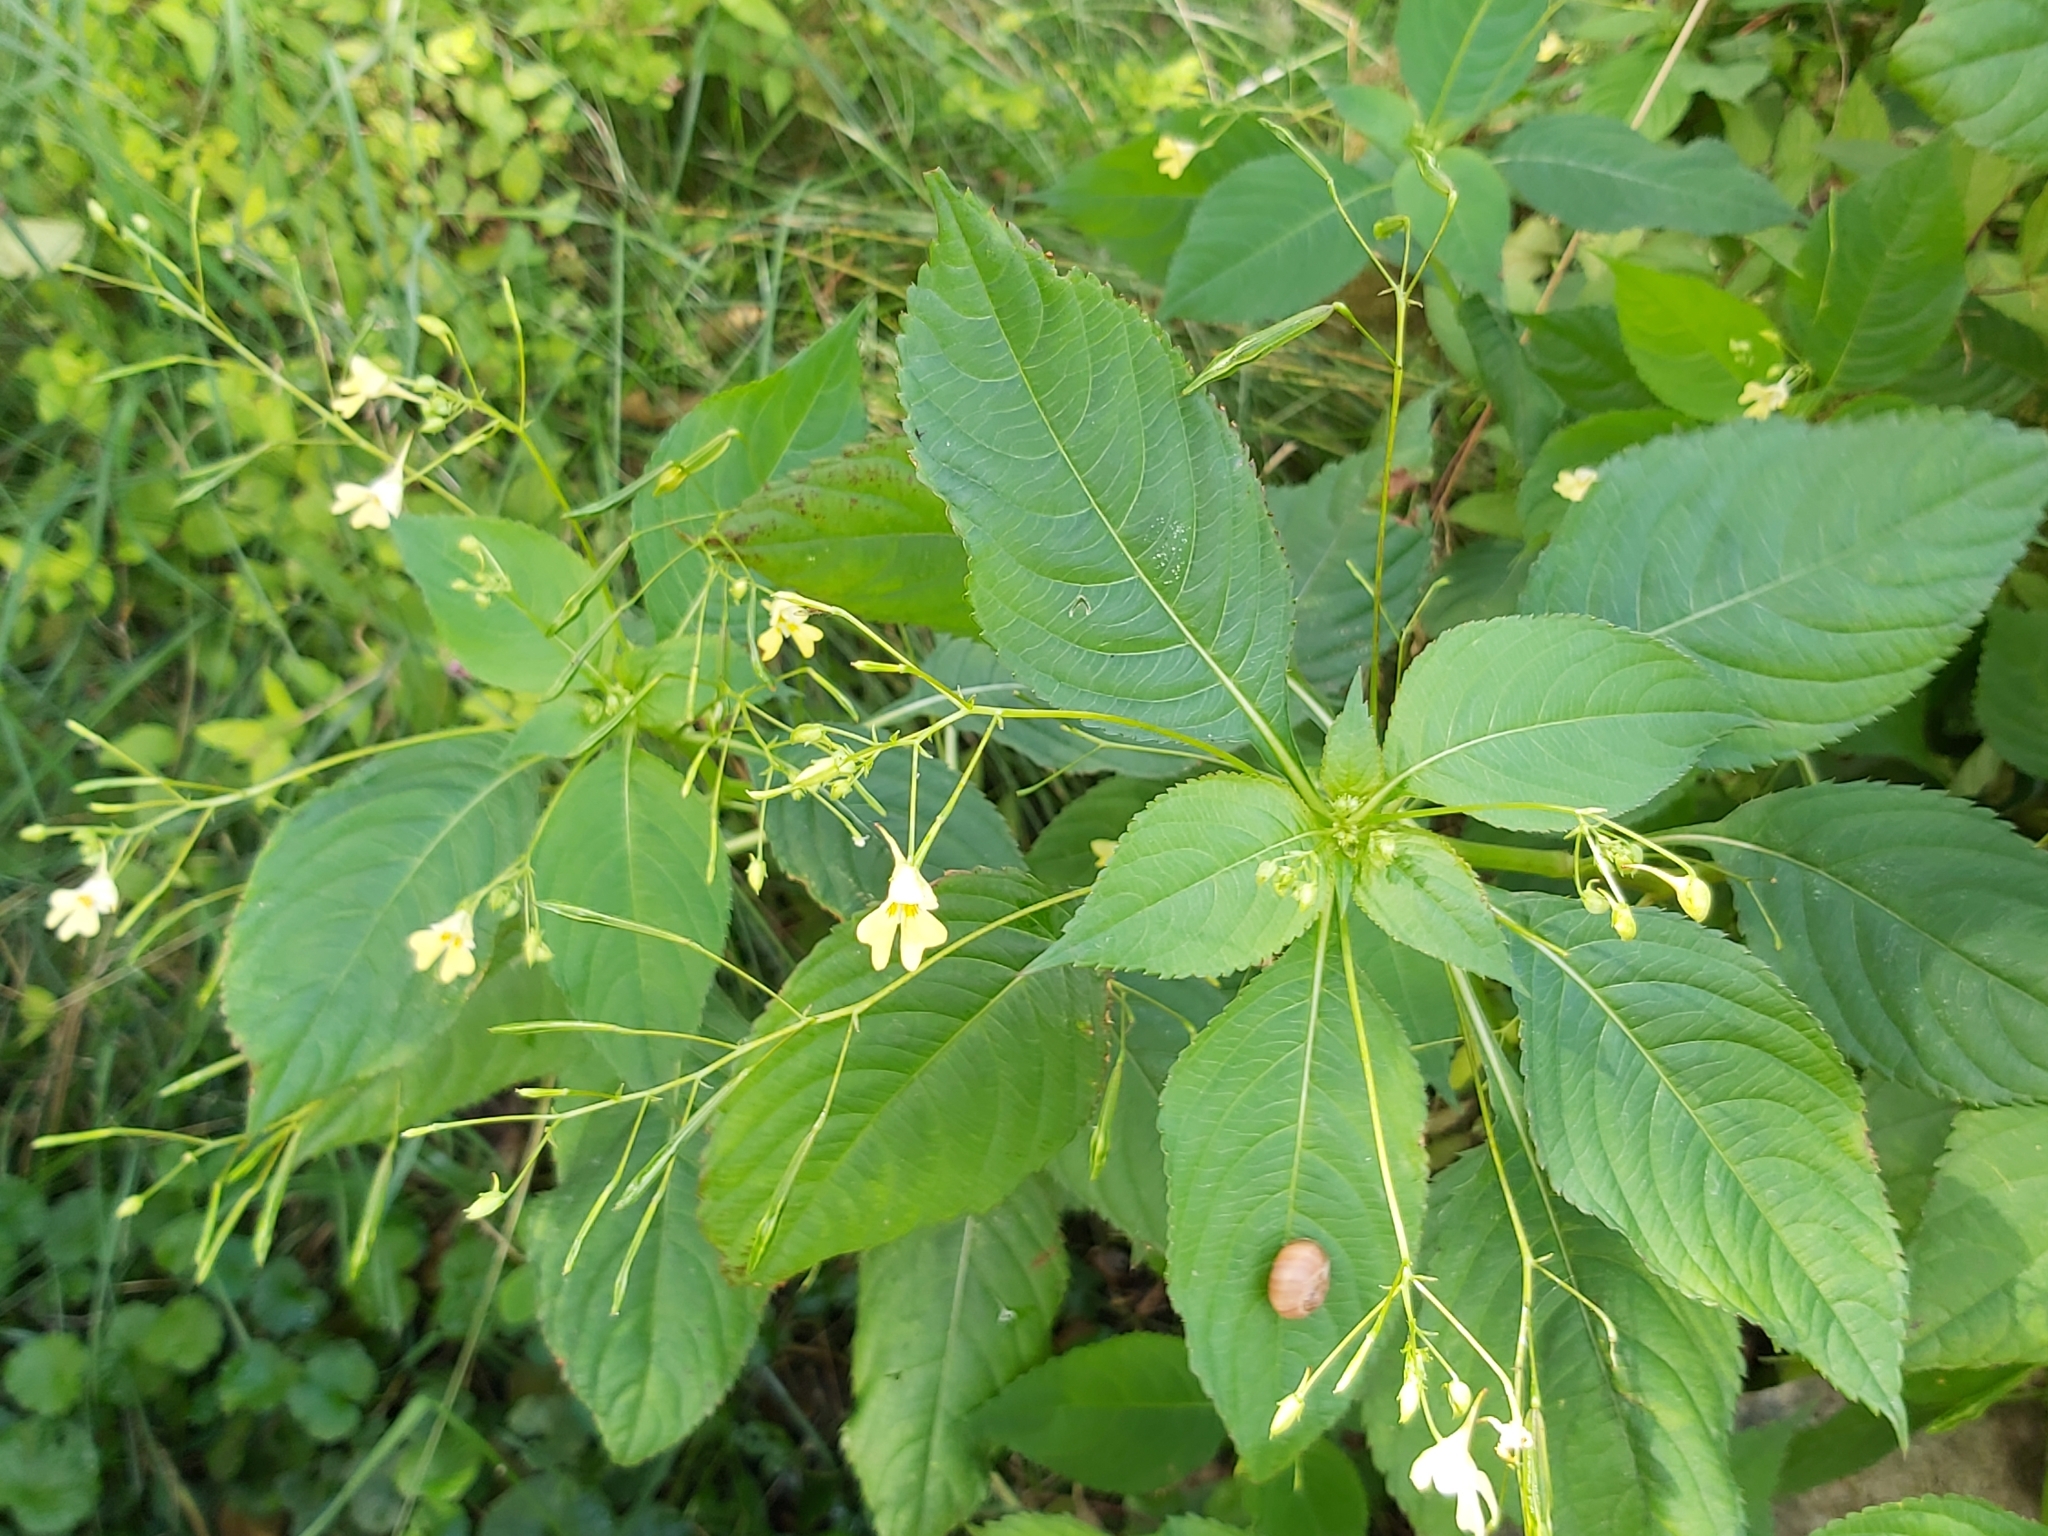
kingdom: Plantae
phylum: Tracheophyta
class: Magnoliopsida
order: Ericales
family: Balsaminaceae
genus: Impatiens
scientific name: Impatiens parviflora
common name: Small balsam
